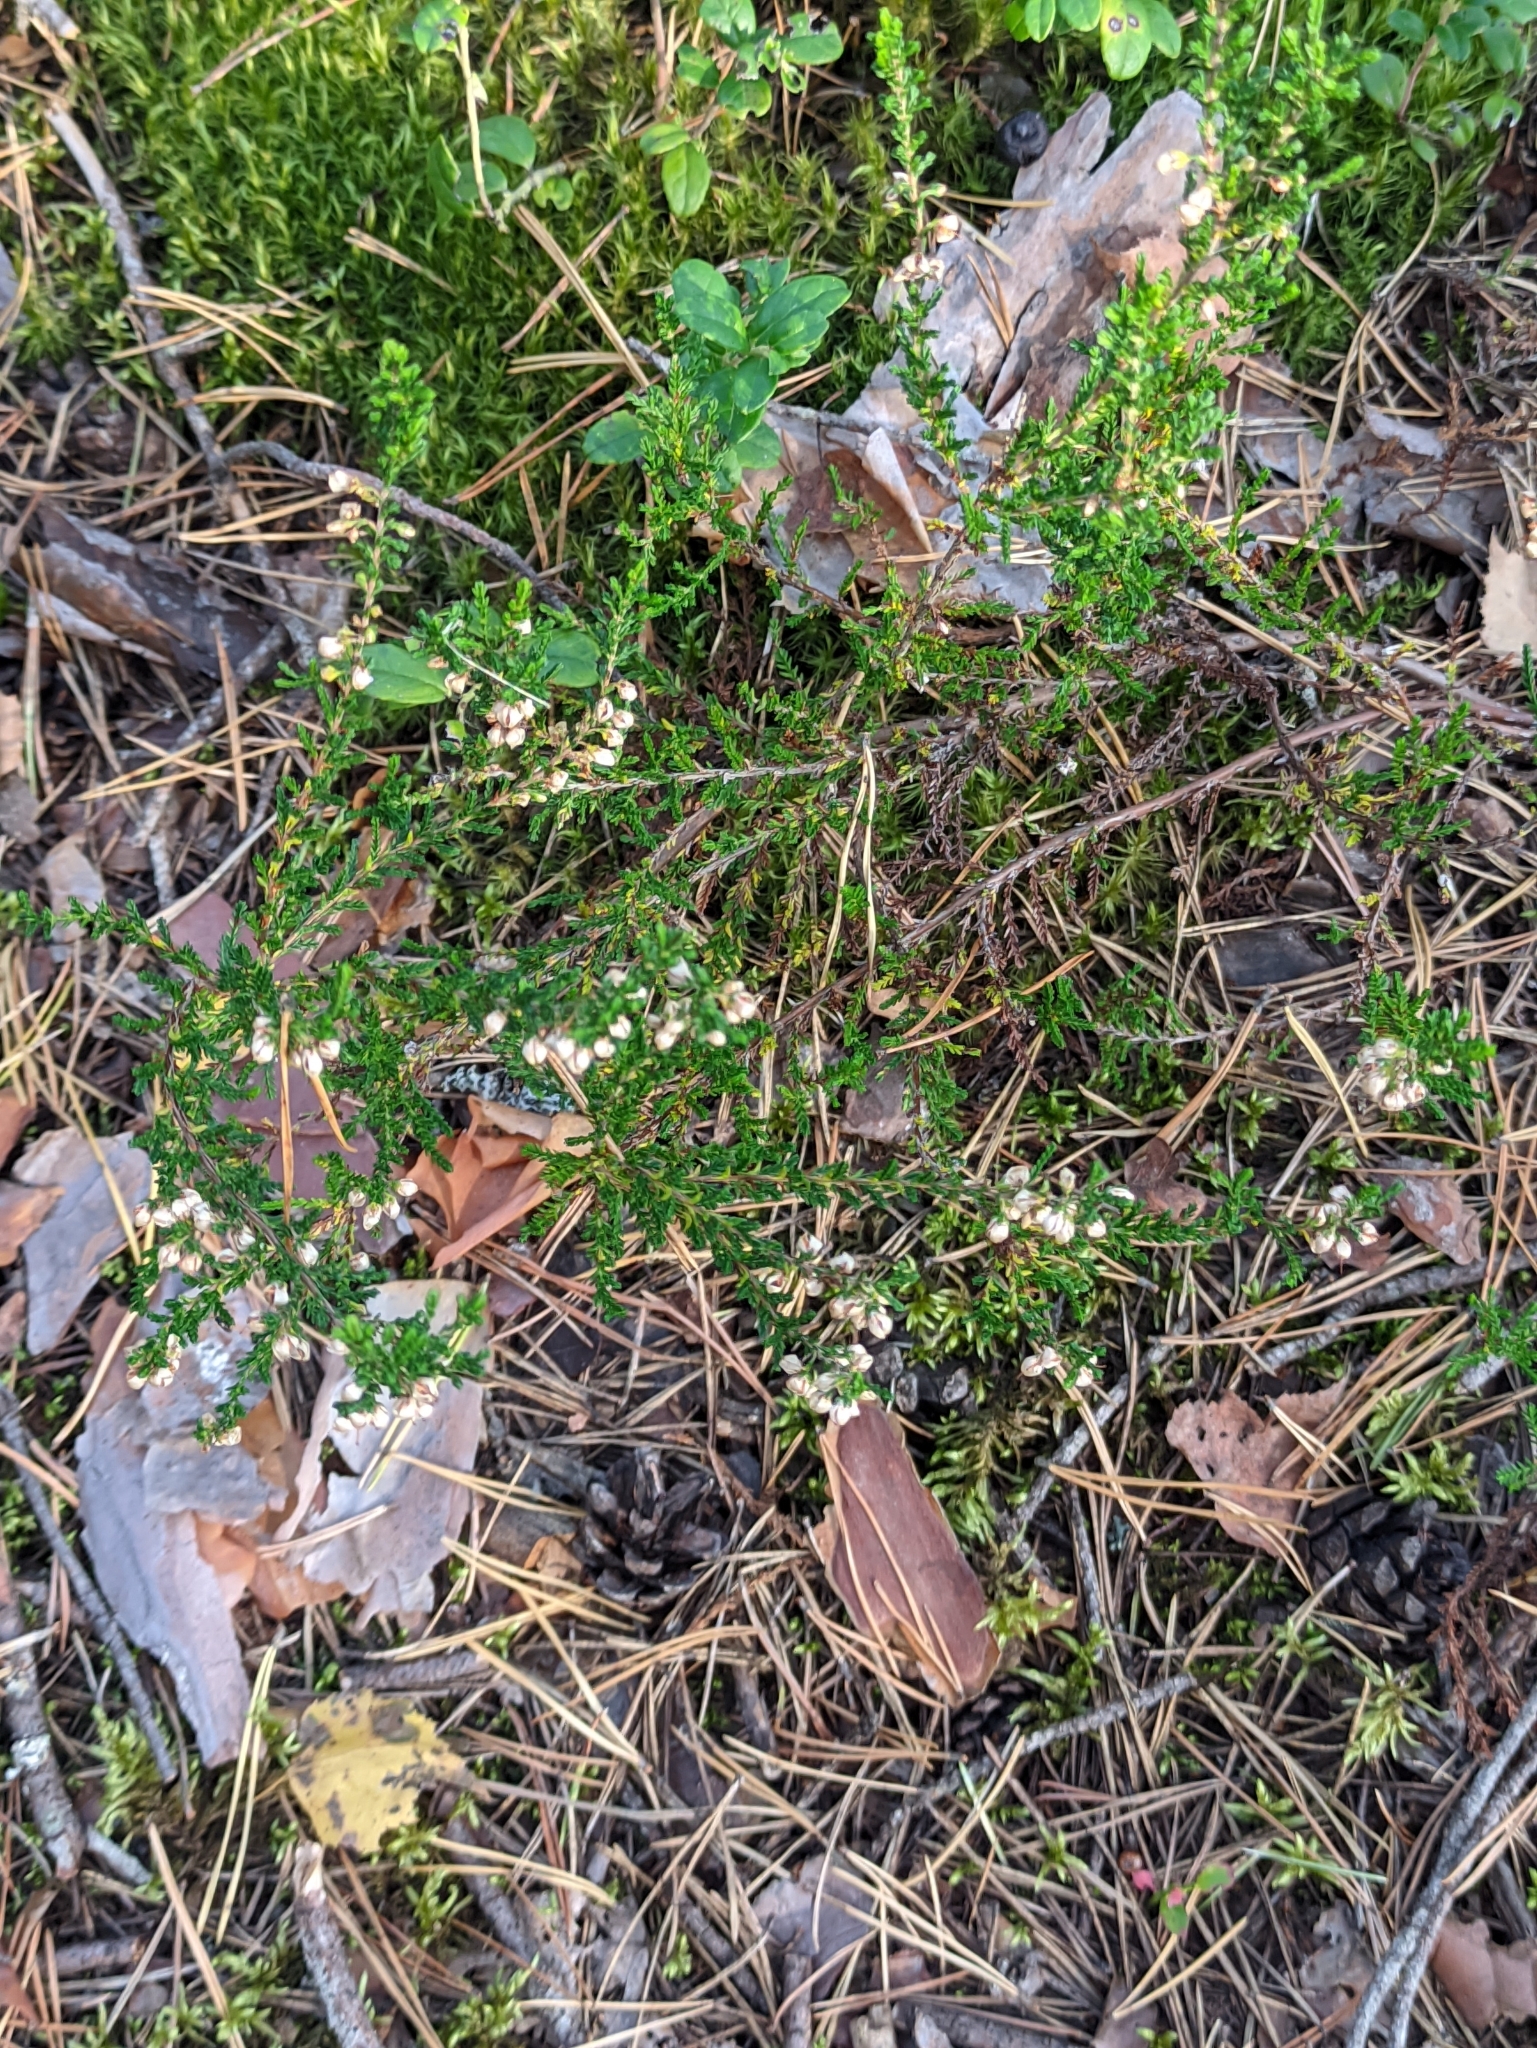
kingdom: Plantae
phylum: Tracheophyta
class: Magnoliopsida
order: Ericales
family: Ericaceae
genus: Calluna
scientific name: Calluna vulgaris
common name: Heather
